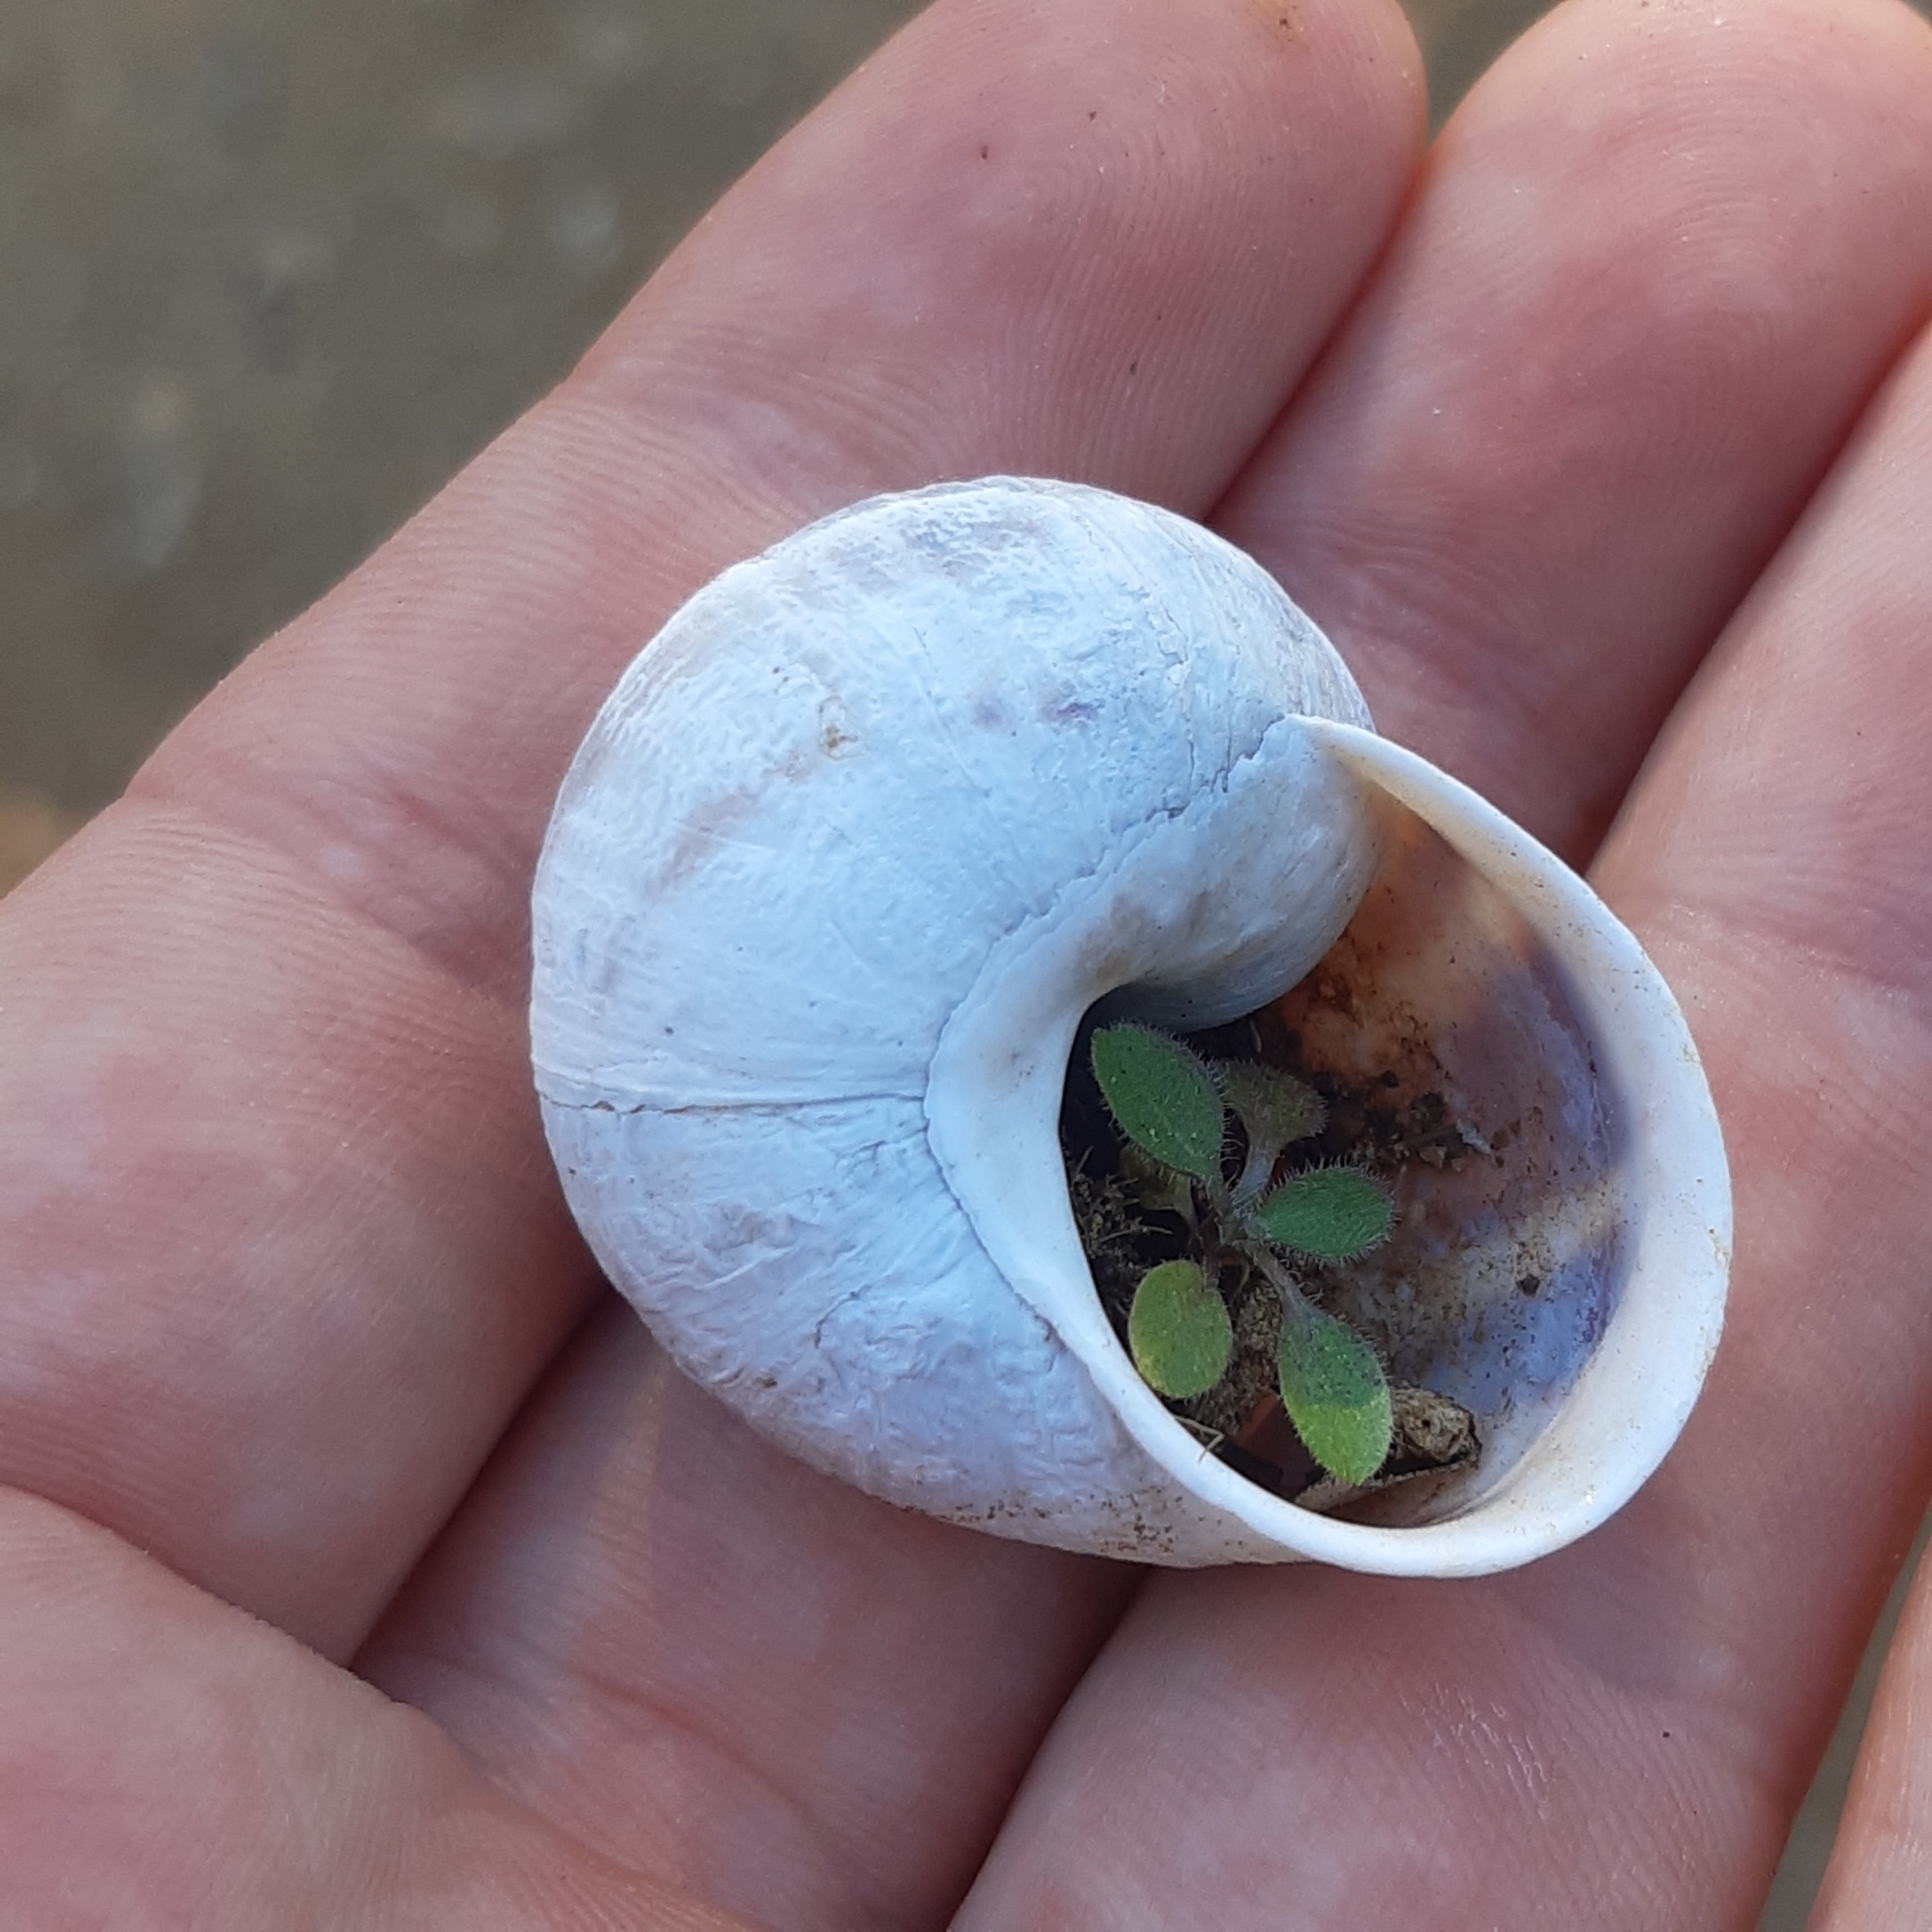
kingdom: Animalia
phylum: Mollusca
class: Gastropoda
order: Stylommatophora
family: Helicidae
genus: Cornu
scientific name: Cornu aspersum
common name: Brown garden snail
